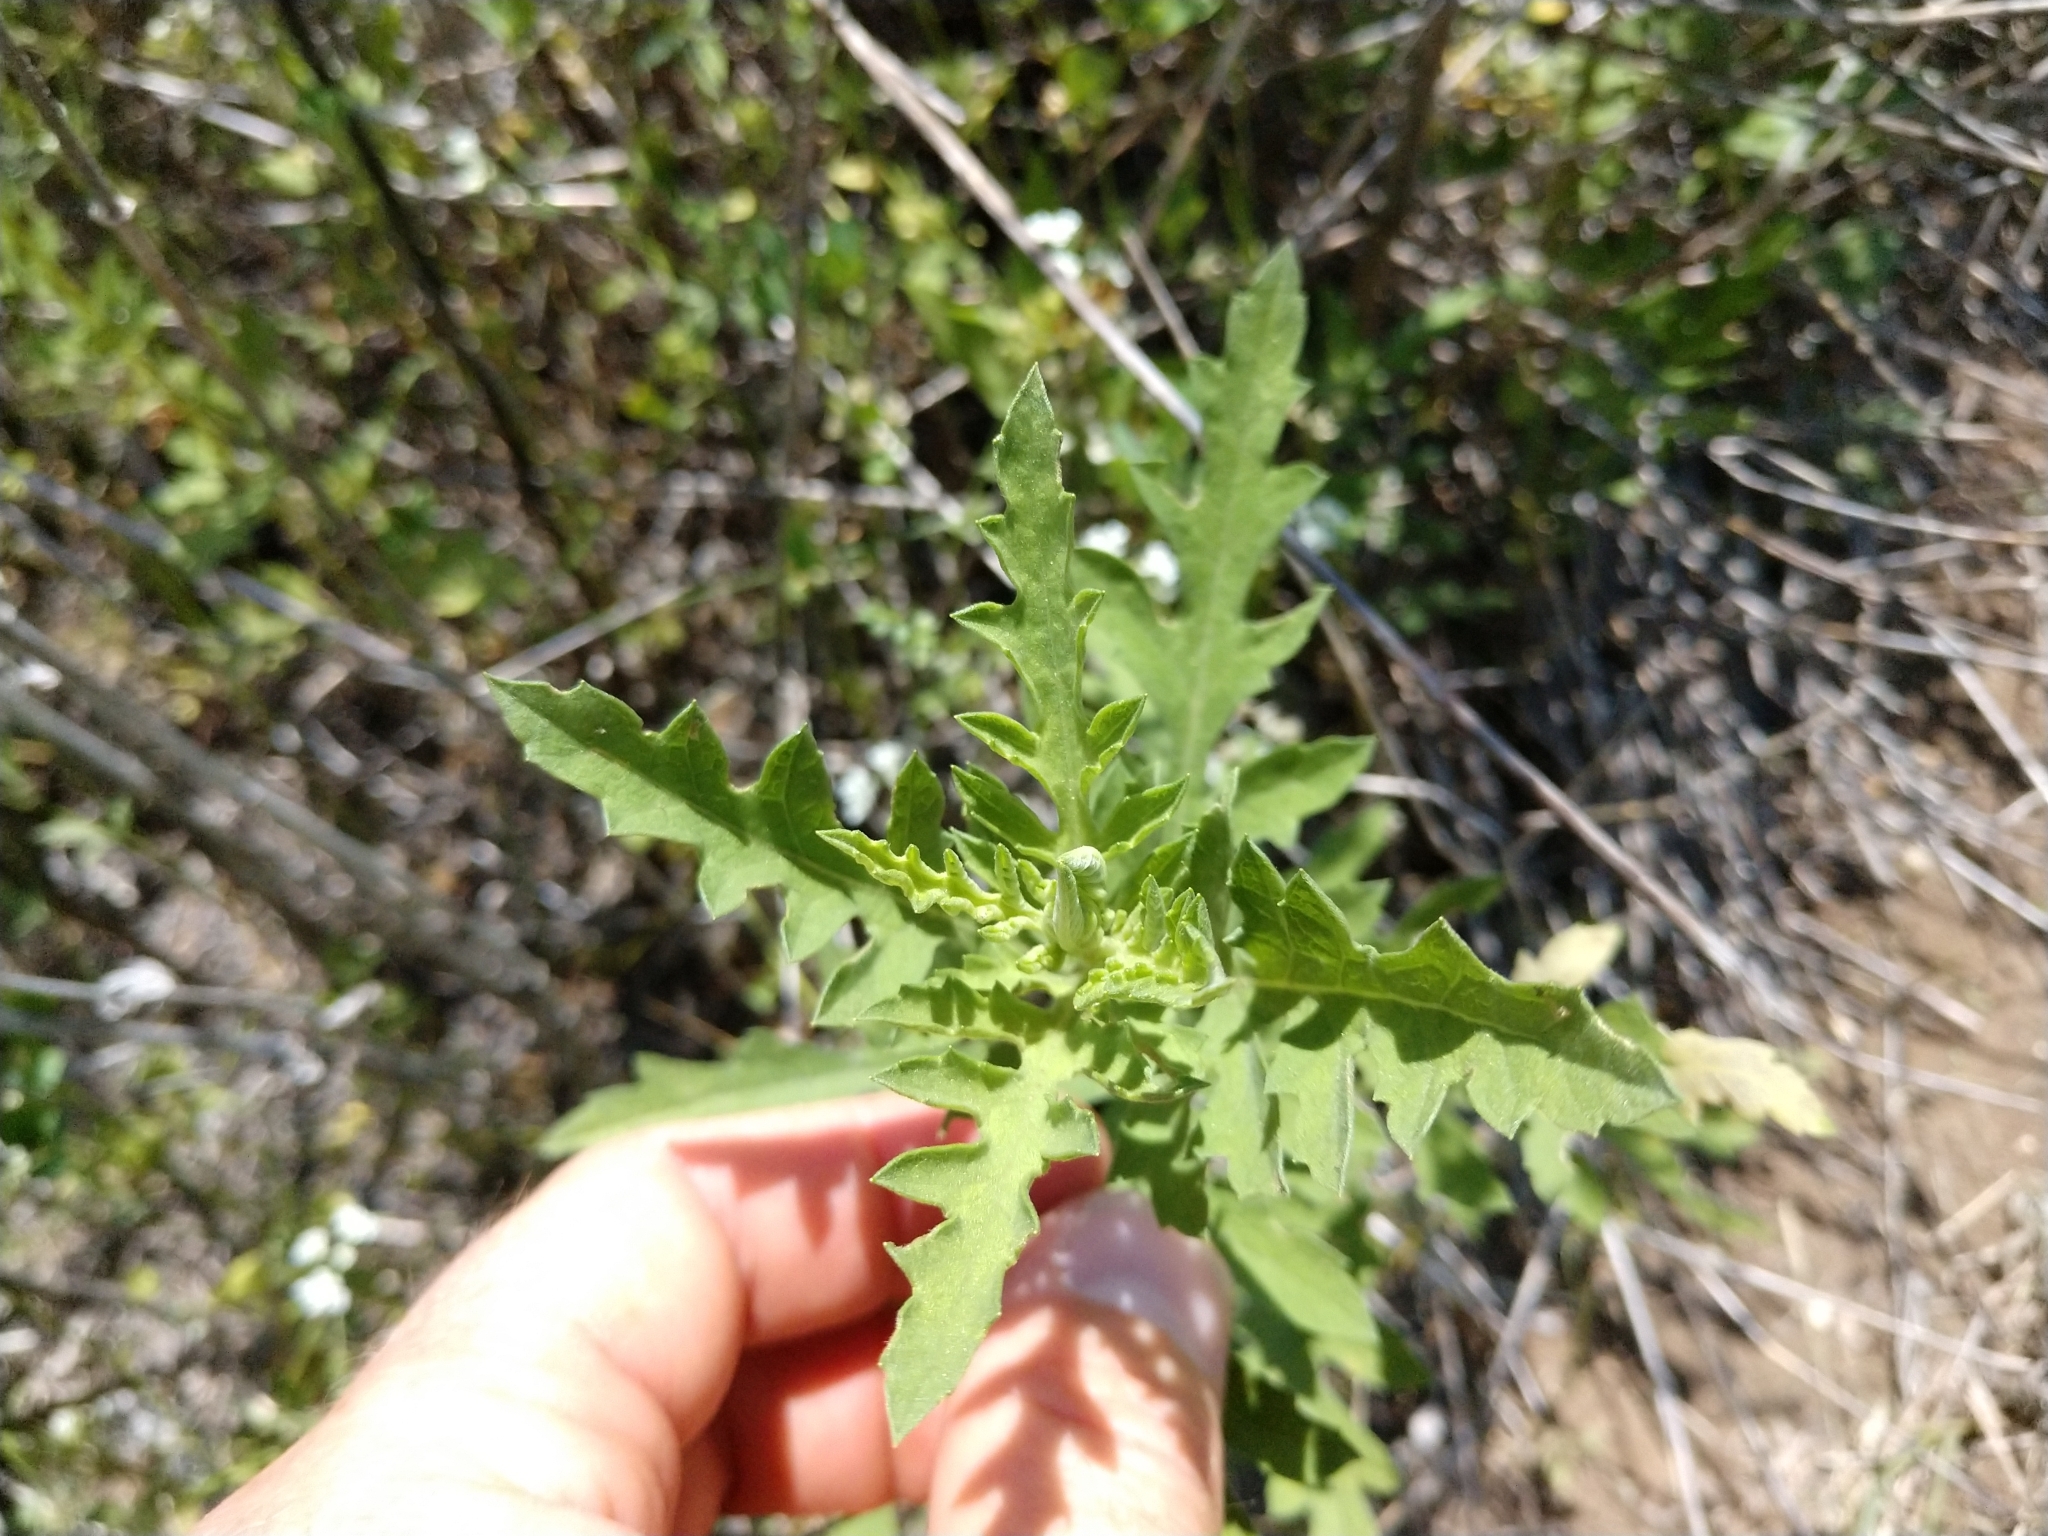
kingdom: Plantae
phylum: Tracheophyta
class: Magnoliopsida
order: Asterales
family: Asteraceae
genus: Ambrosia
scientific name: Ambrosia psilostachya
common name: Perennial ragweed
